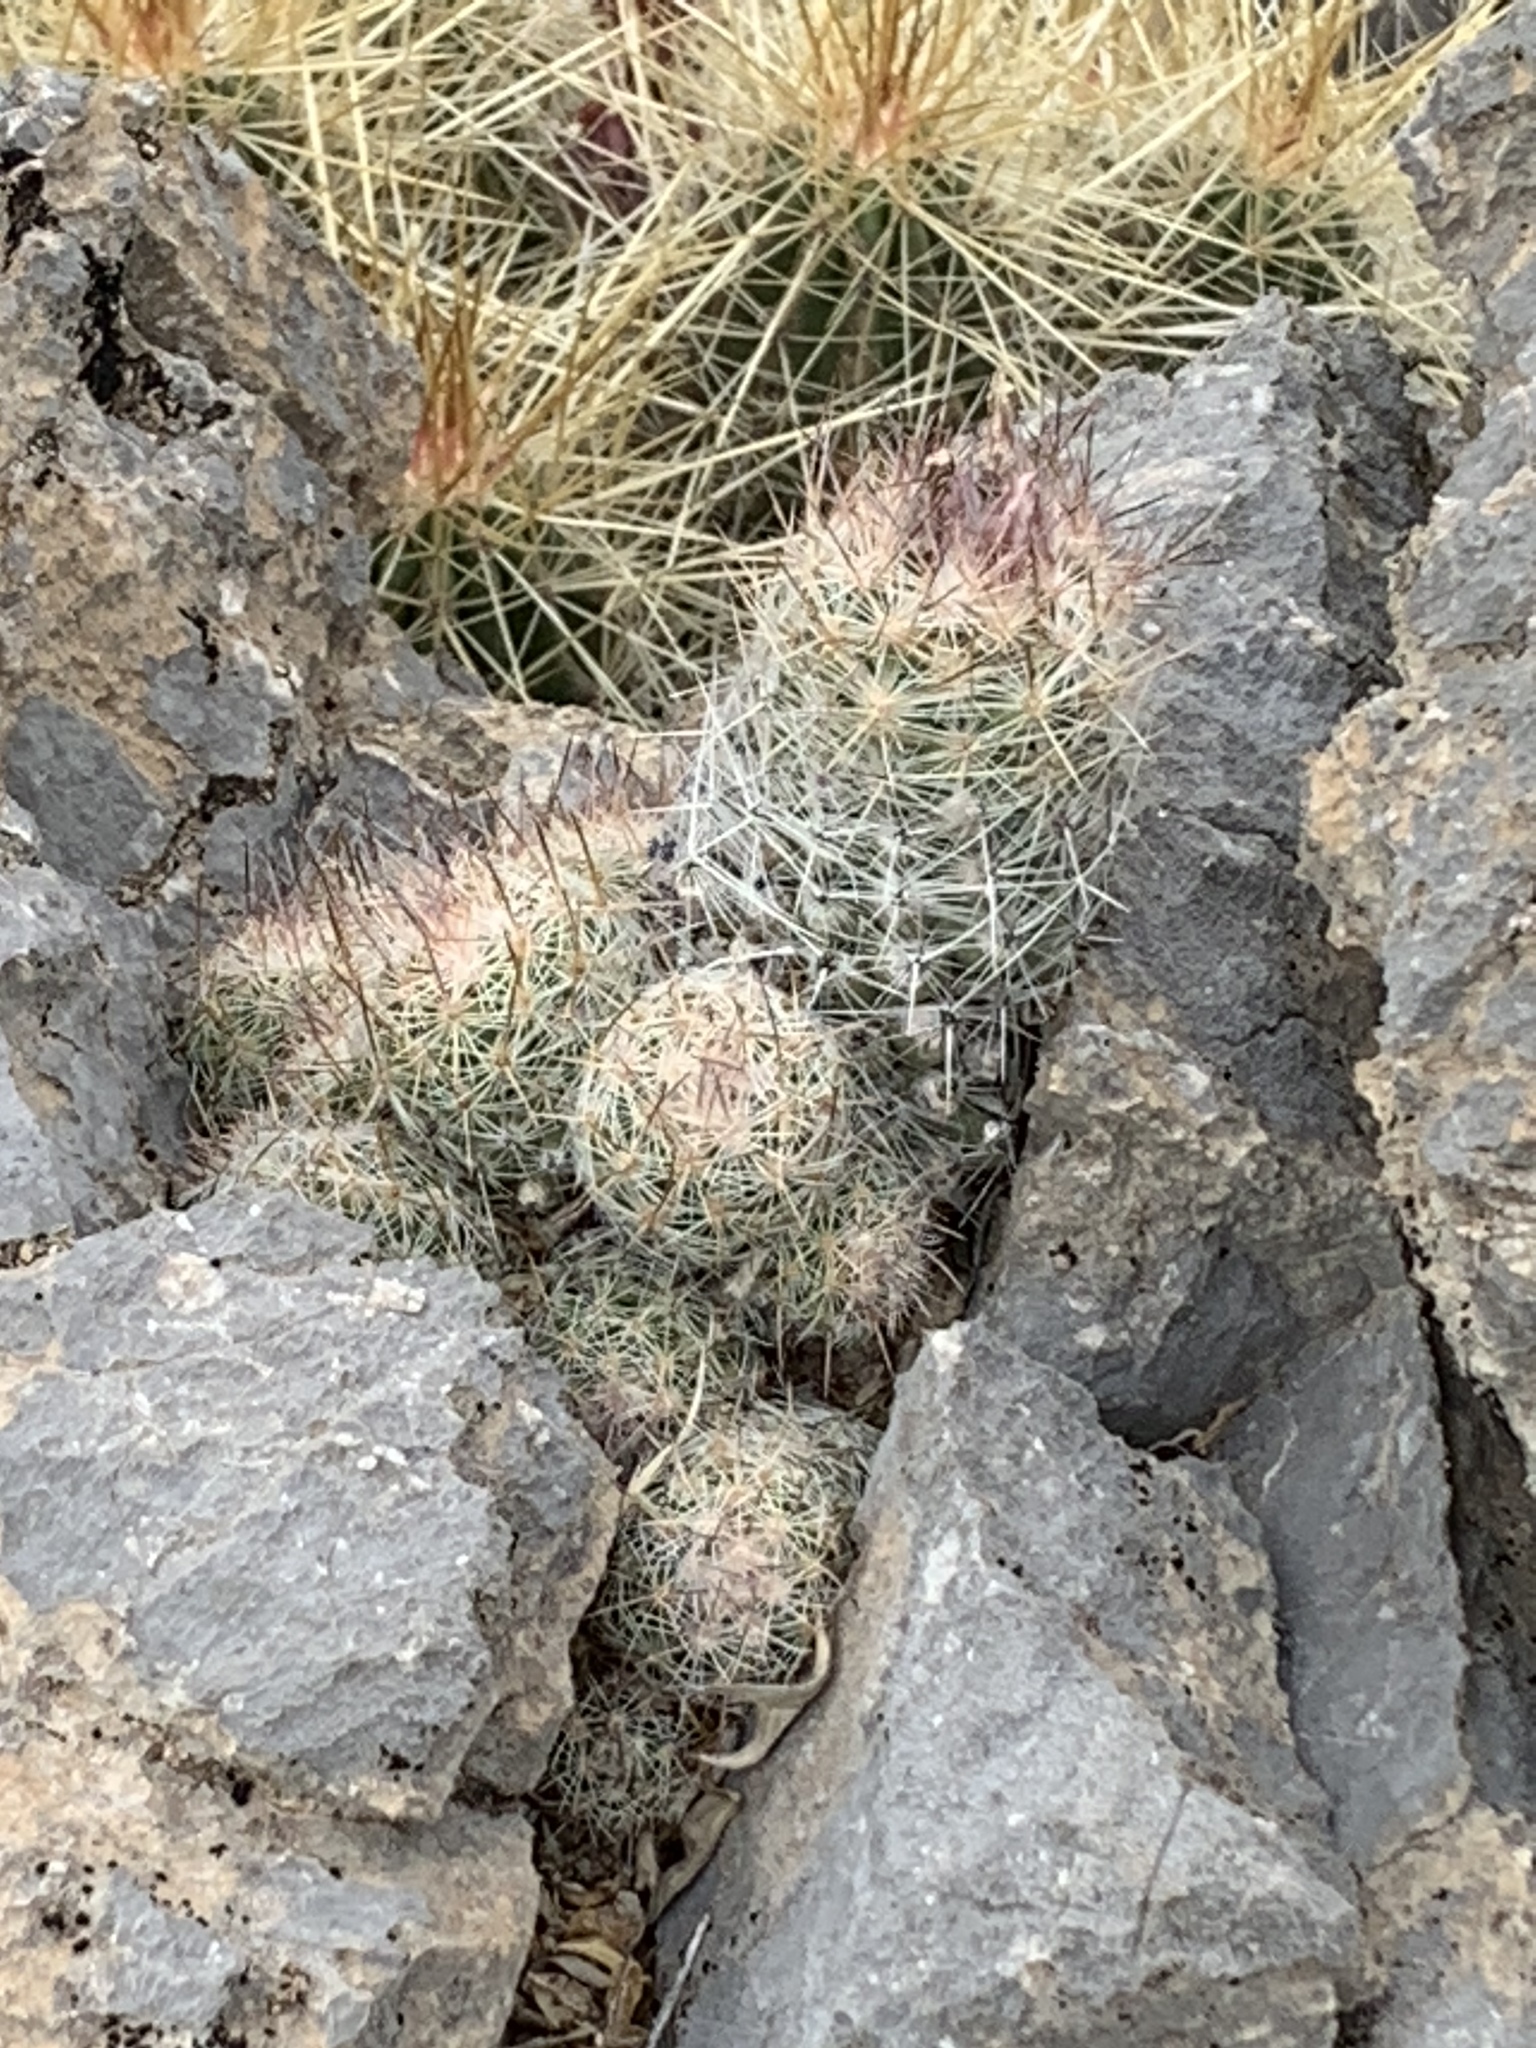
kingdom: Plantae
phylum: Tracheophyta
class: Magnoliopsida
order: Caryophyllales
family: Cactaceae
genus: Pelecyphora
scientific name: Pelecyphora tuberculosa
